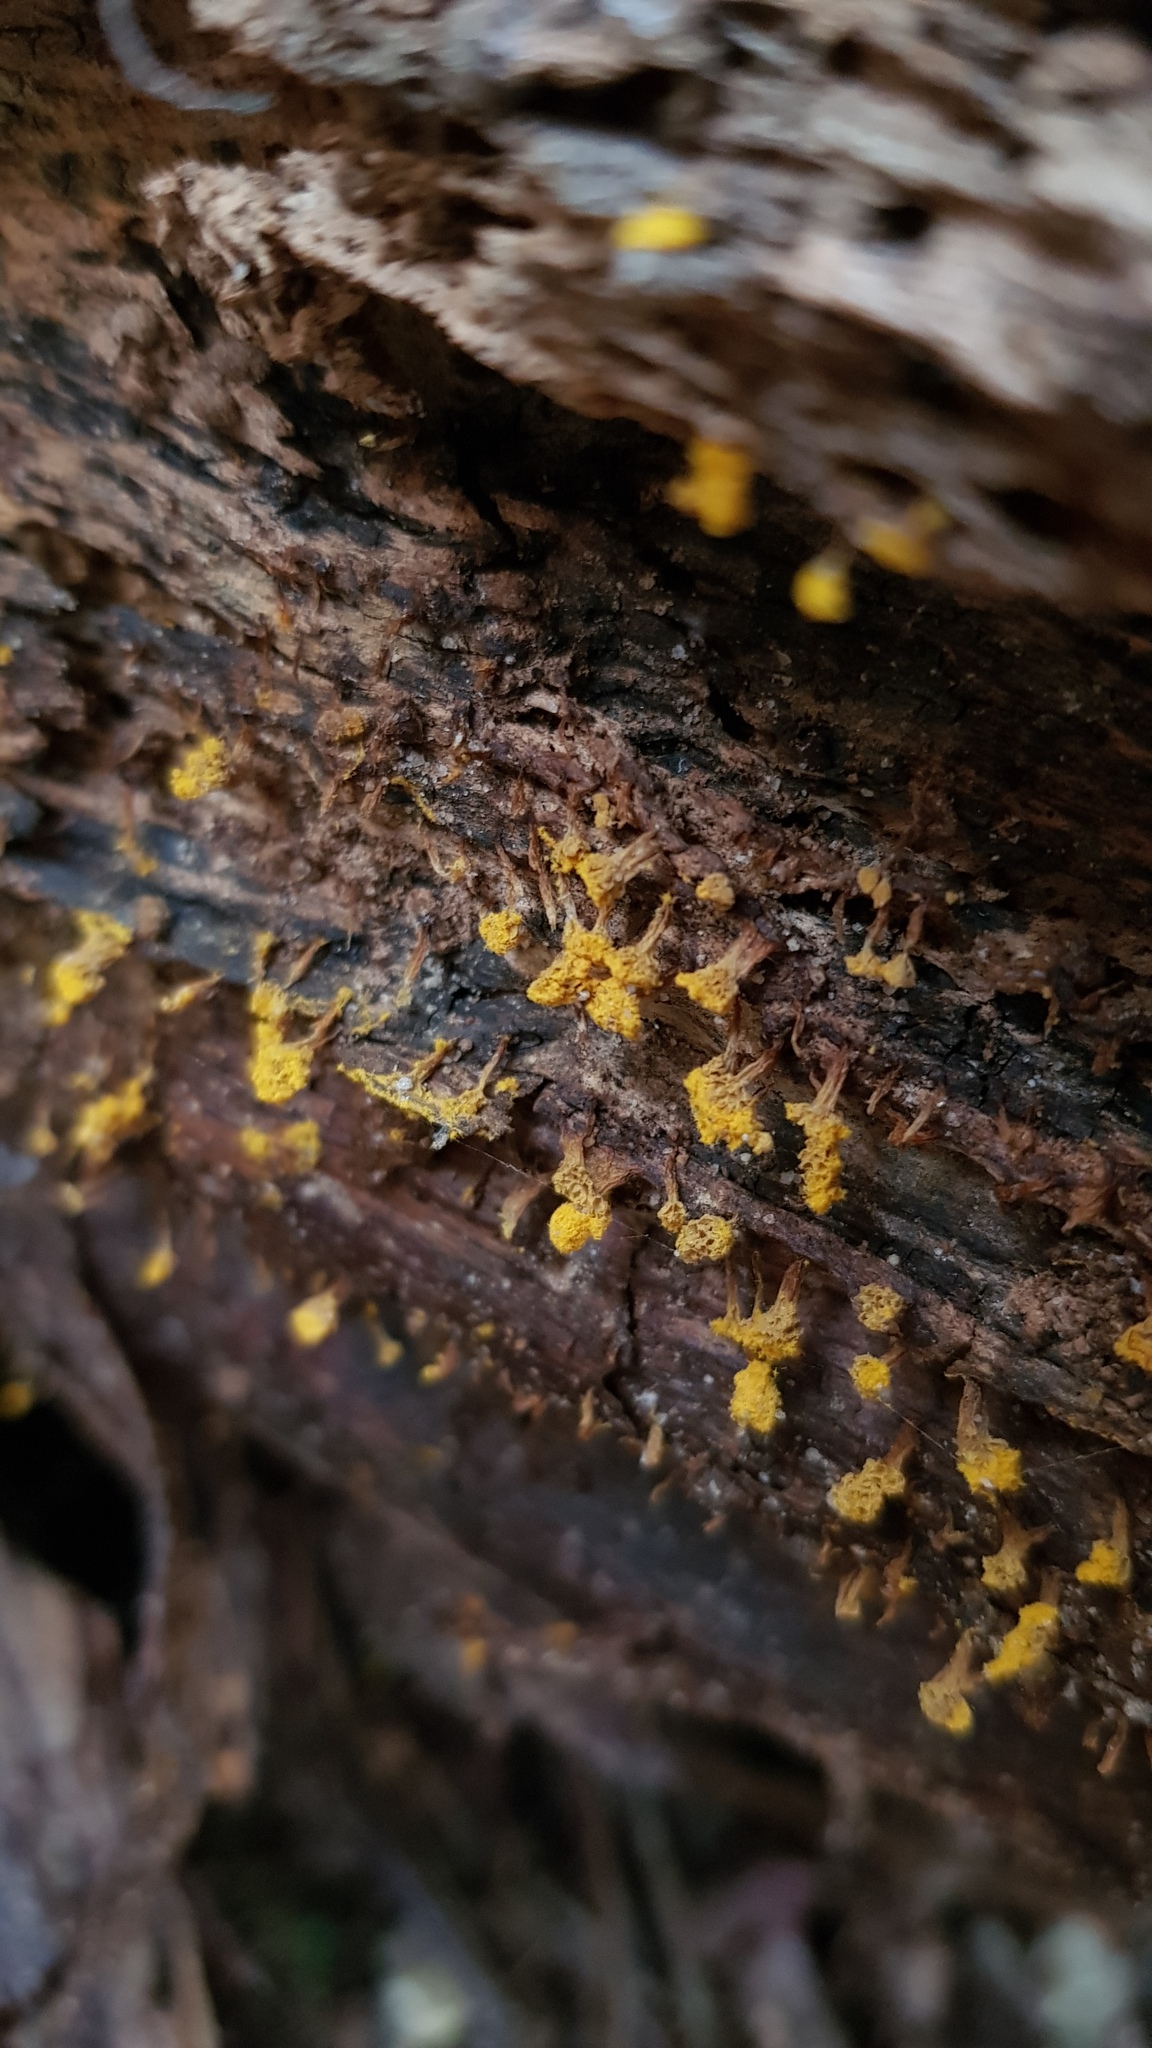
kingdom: Protozoa
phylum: Mycetozoa
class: Myxomycetes
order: Trichiales
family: Trichiaceae
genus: Oligonema
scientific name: Oligonema verrucosum
